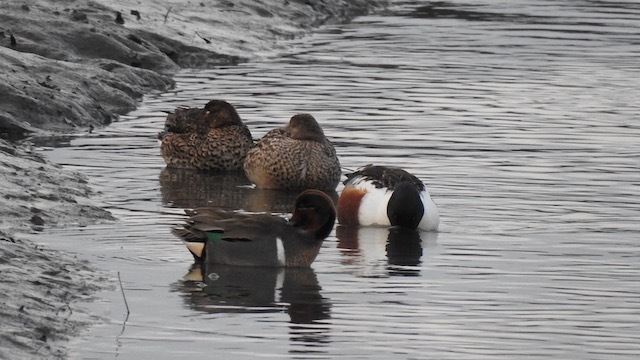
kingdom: Animalia
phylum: Chordata
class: Aves
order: Anseriformes
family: Anatidae
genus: Spatula
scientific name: Spatula clypeata
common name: Northern shoveler
